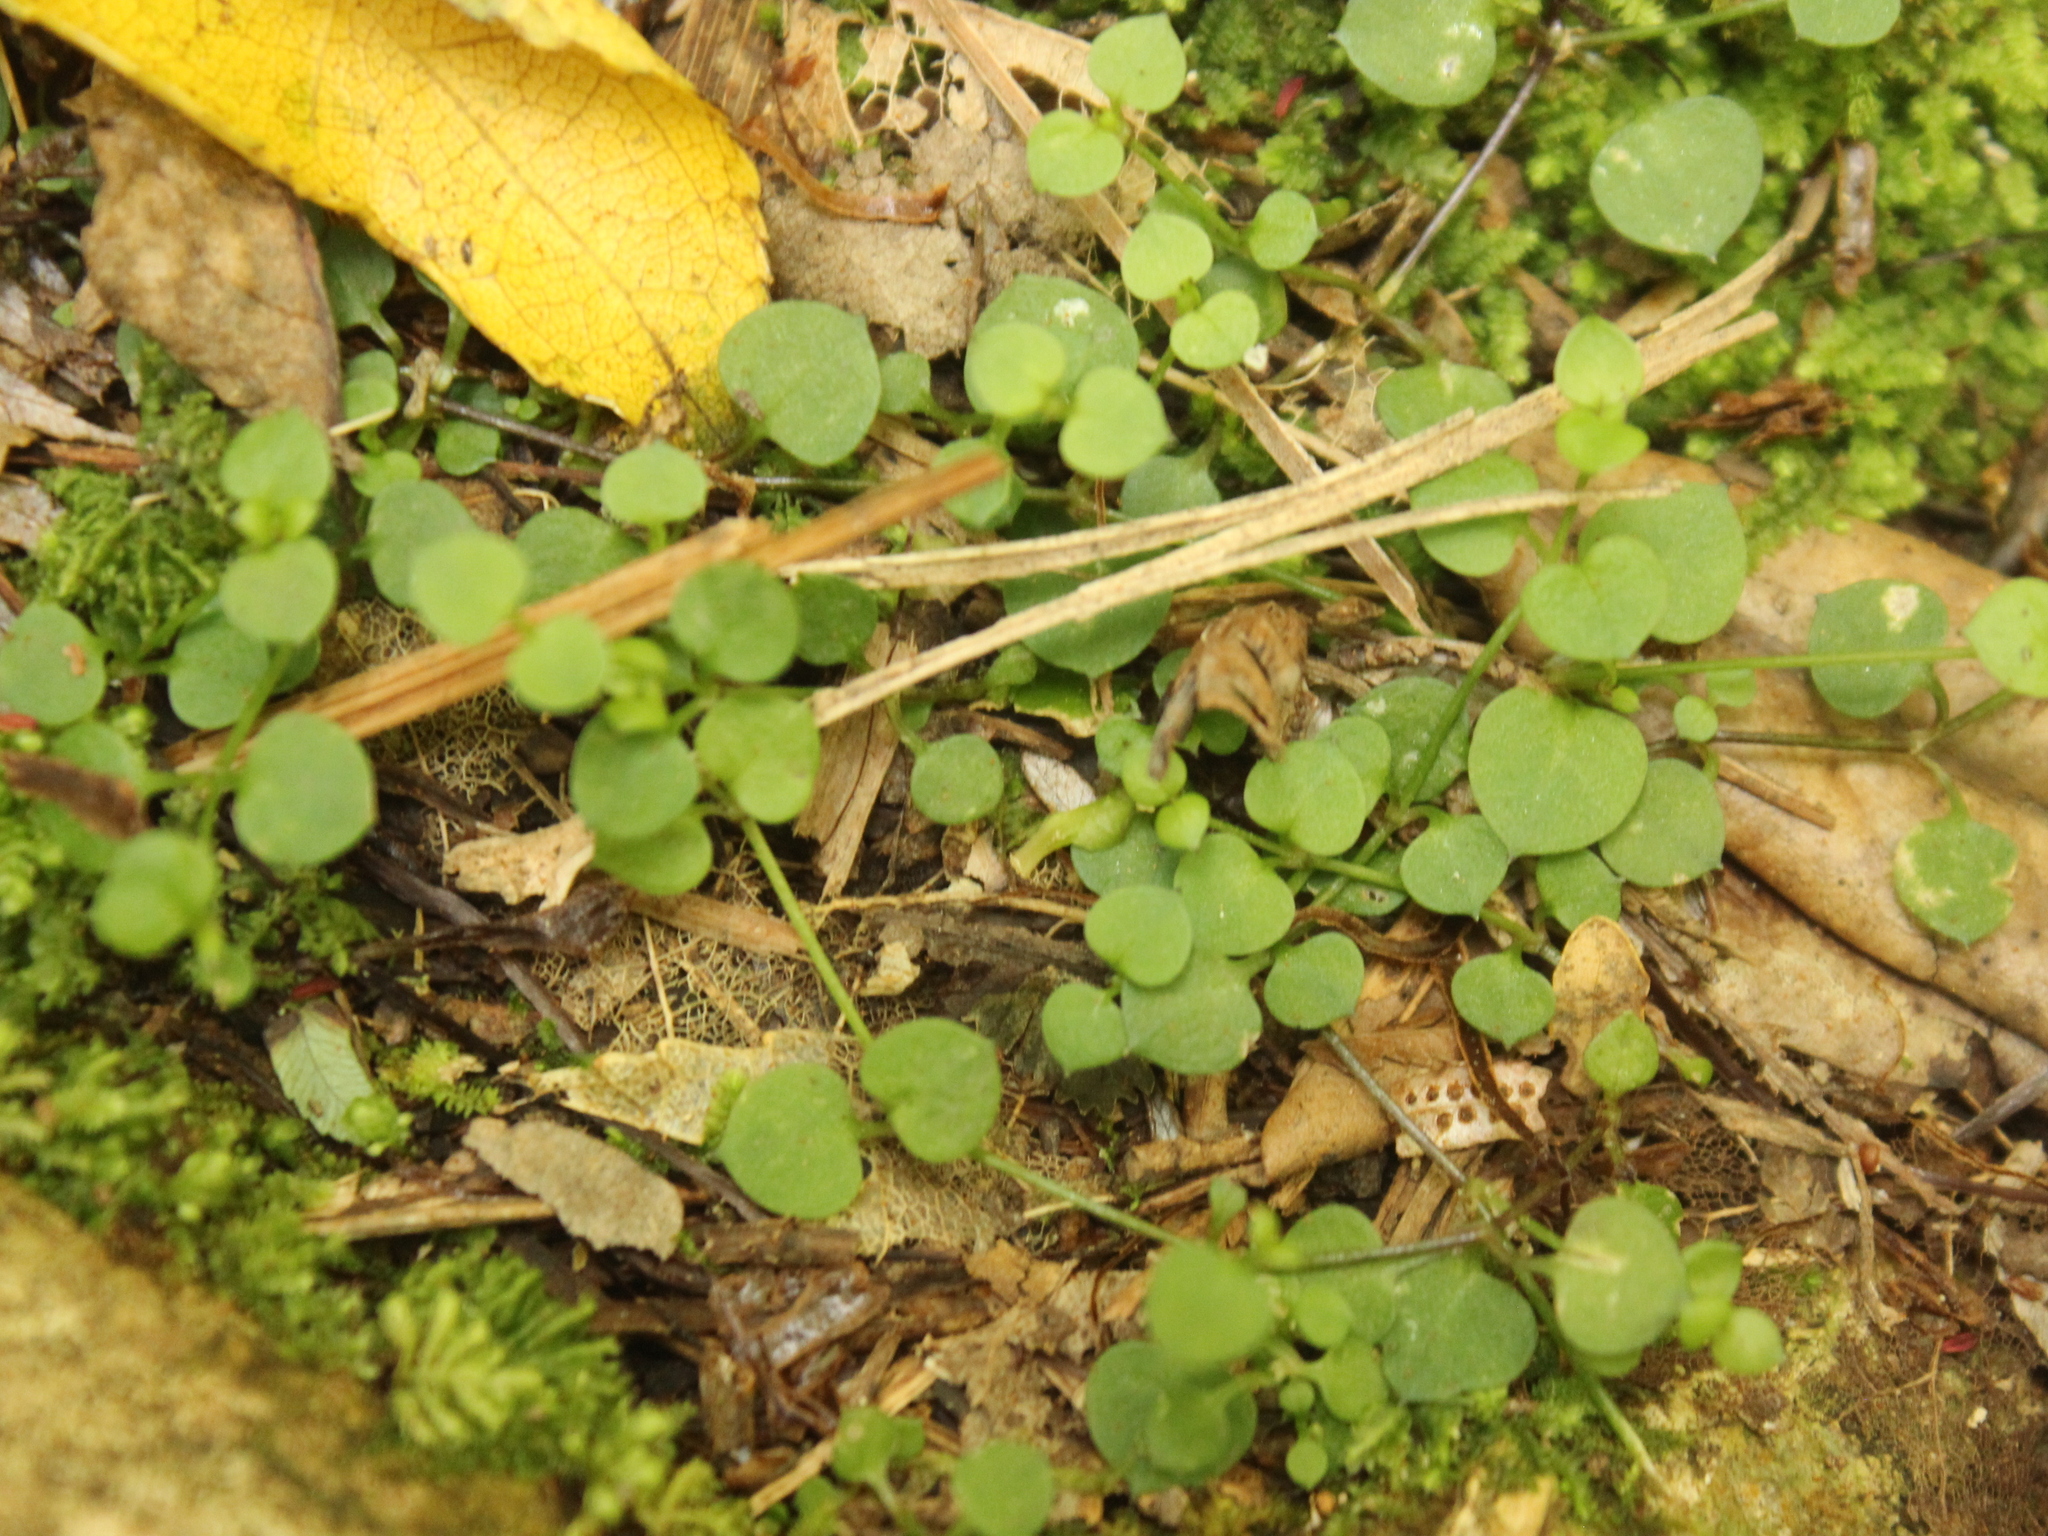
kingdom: Plantae
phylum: Tracheophyta
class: Magnoliopsida
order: Caryophyllales
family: Caryophyllaceae
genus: Stellaria
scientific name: Stellaria parviflora
